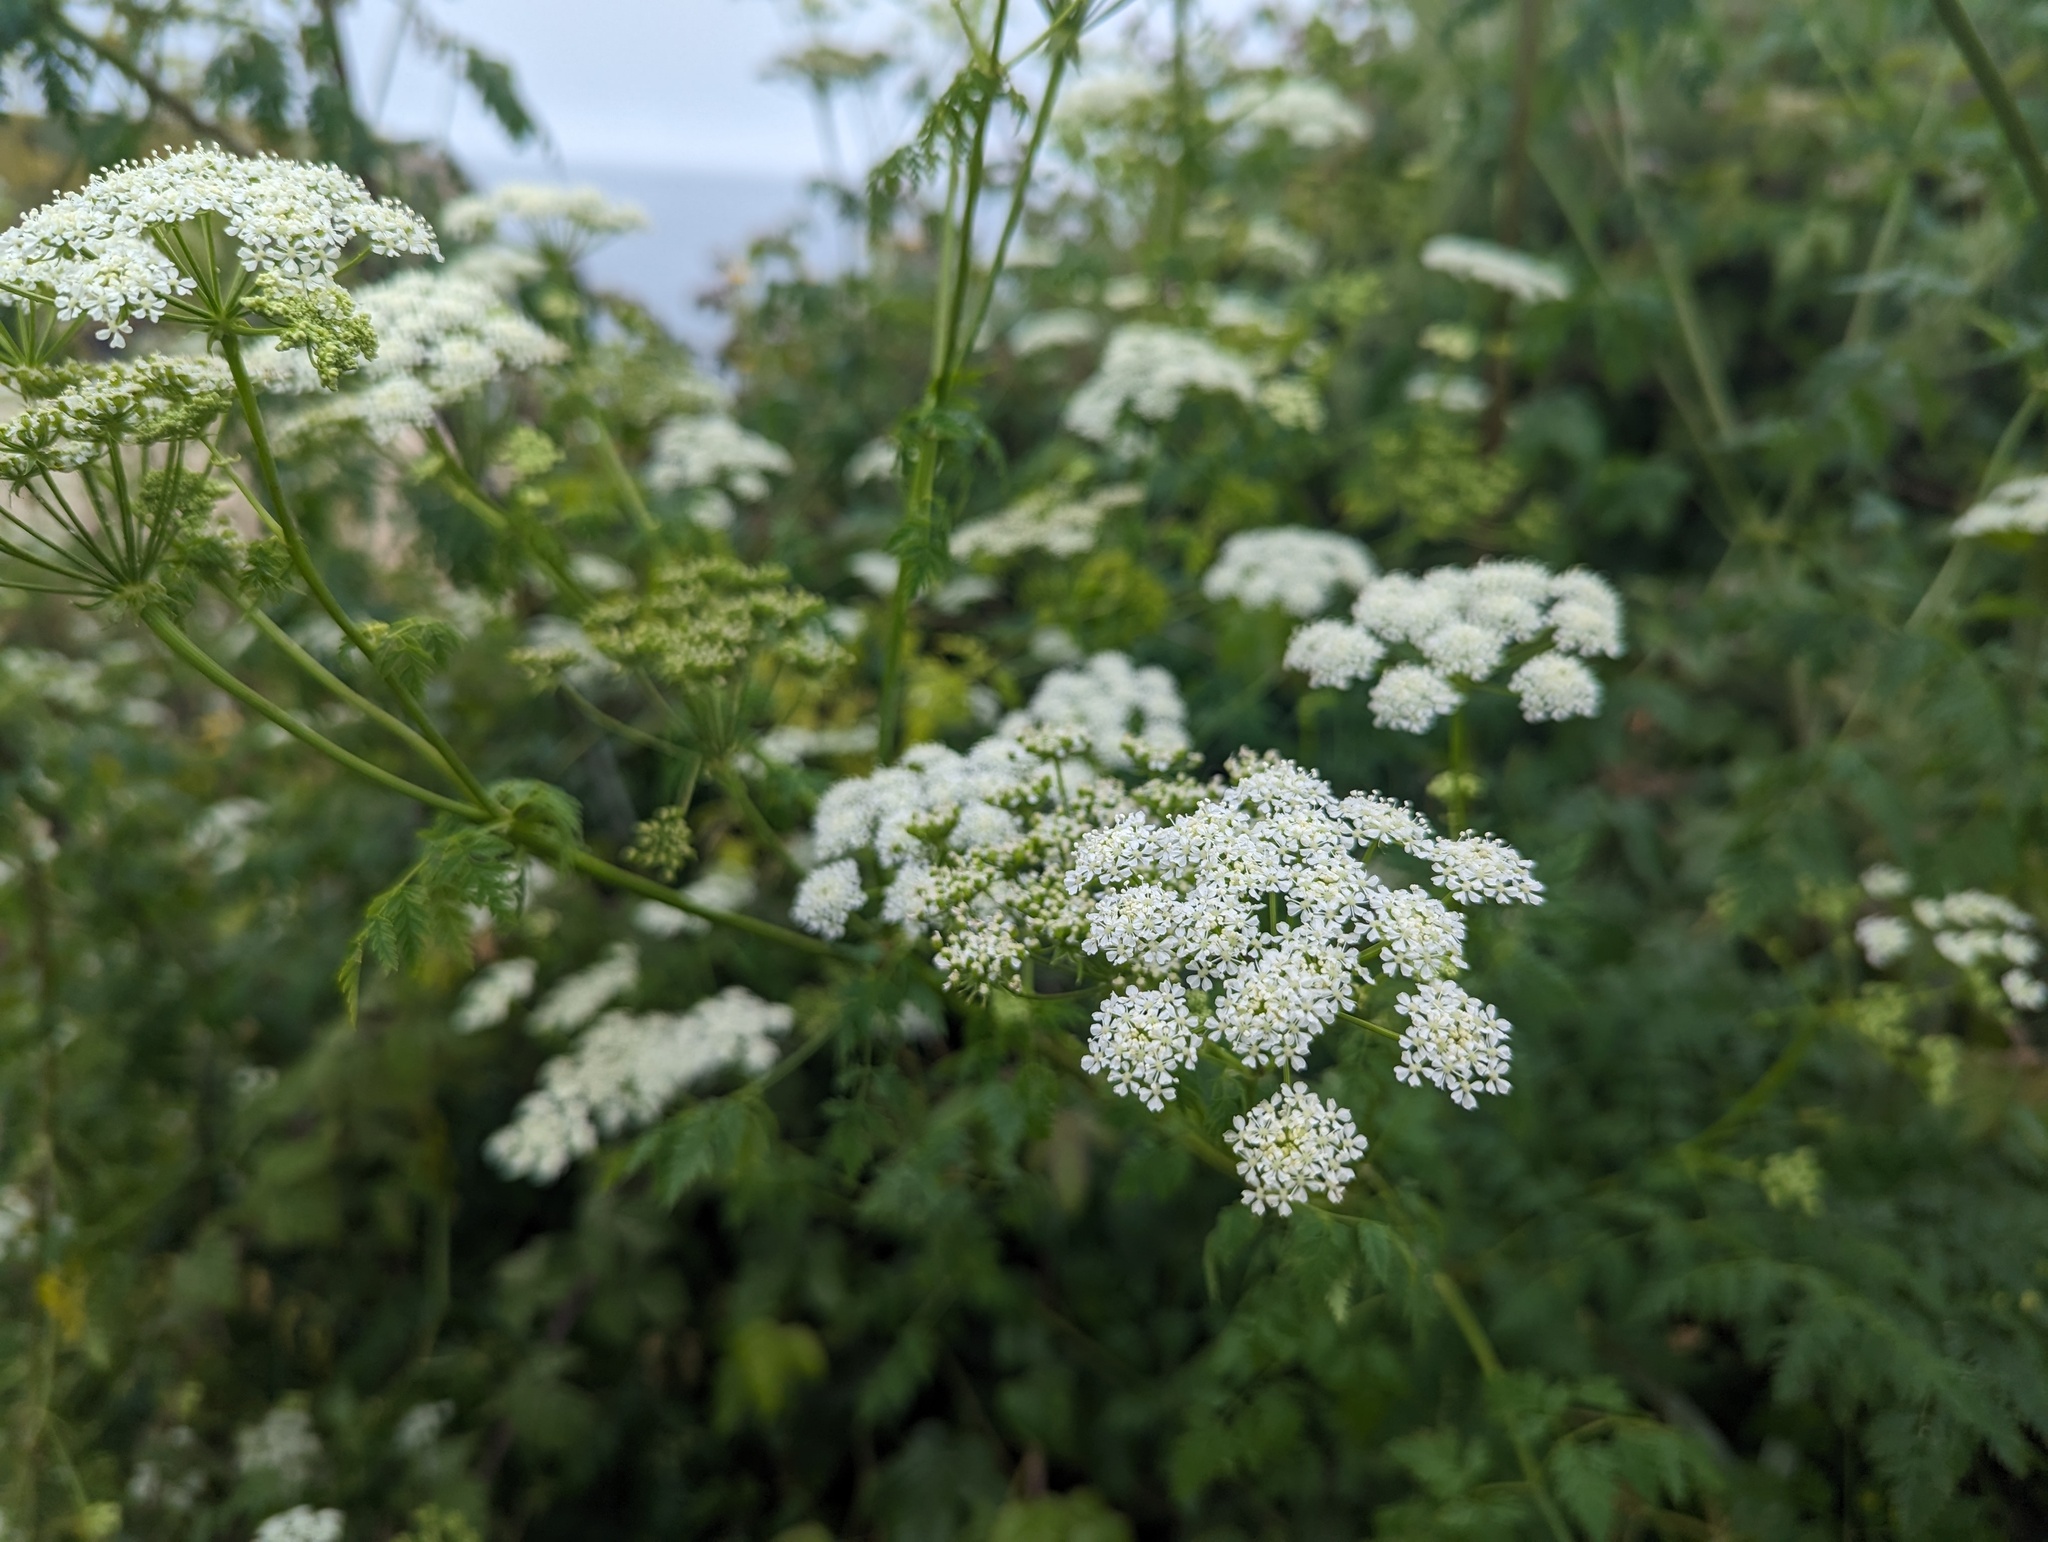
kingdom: Plantae
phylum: Tracheophyta
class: Magnoliopsida
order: Apiales
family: Apiaceae
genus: Conium
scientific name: Conium maculatum
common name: Hemlock
